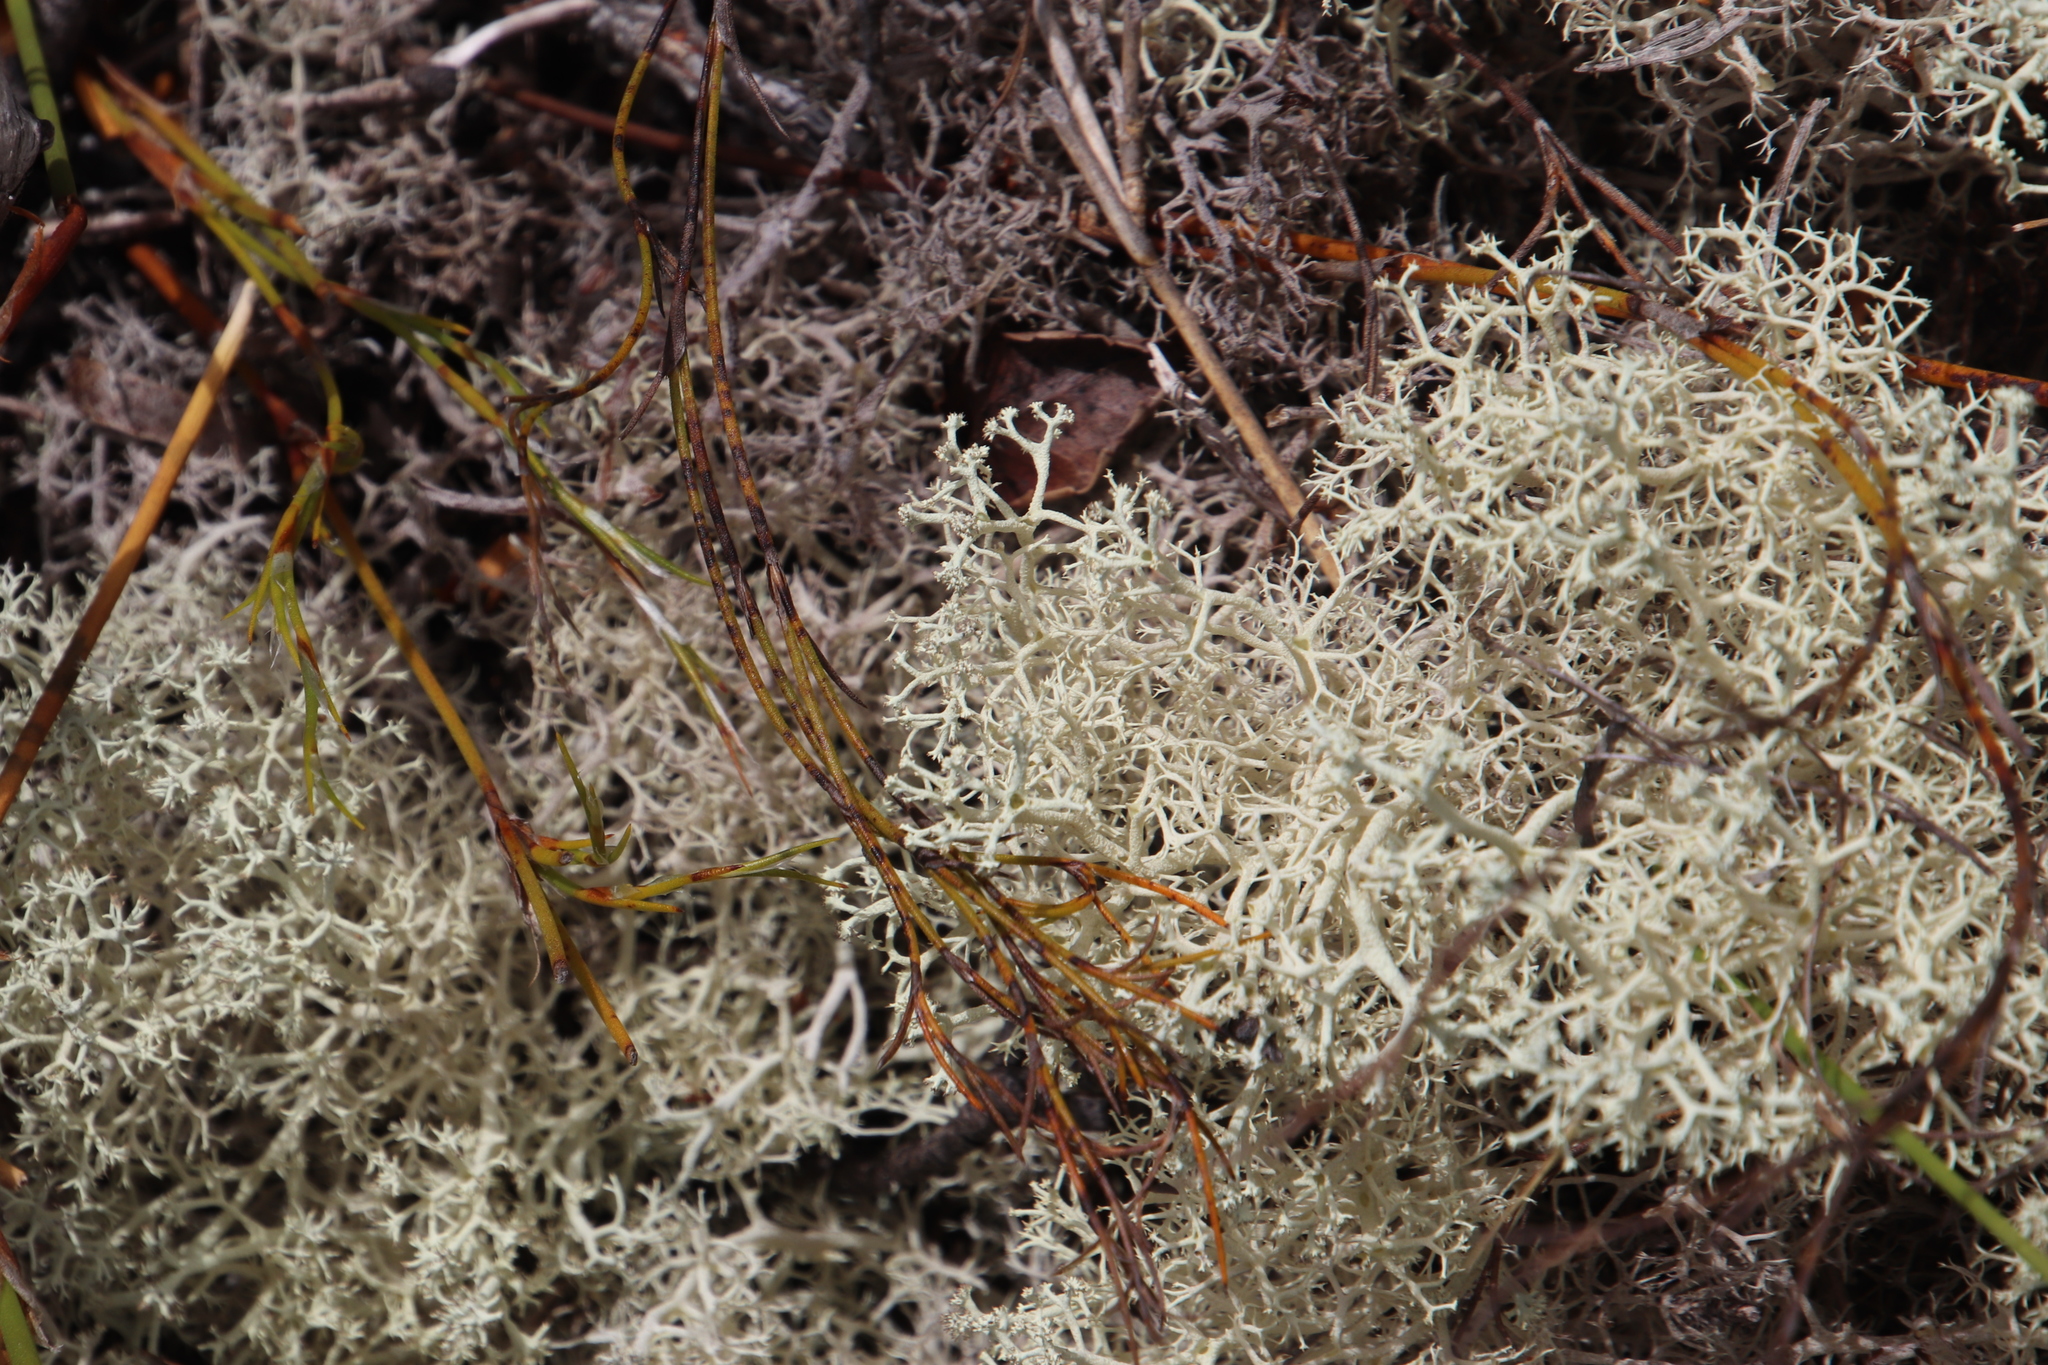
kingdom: Fungi
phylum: Ascomycota
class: Lecanoromycetes
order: Lecanorales
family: Cladoniaceae
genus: Cladonia
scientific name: Cladonia confusa
